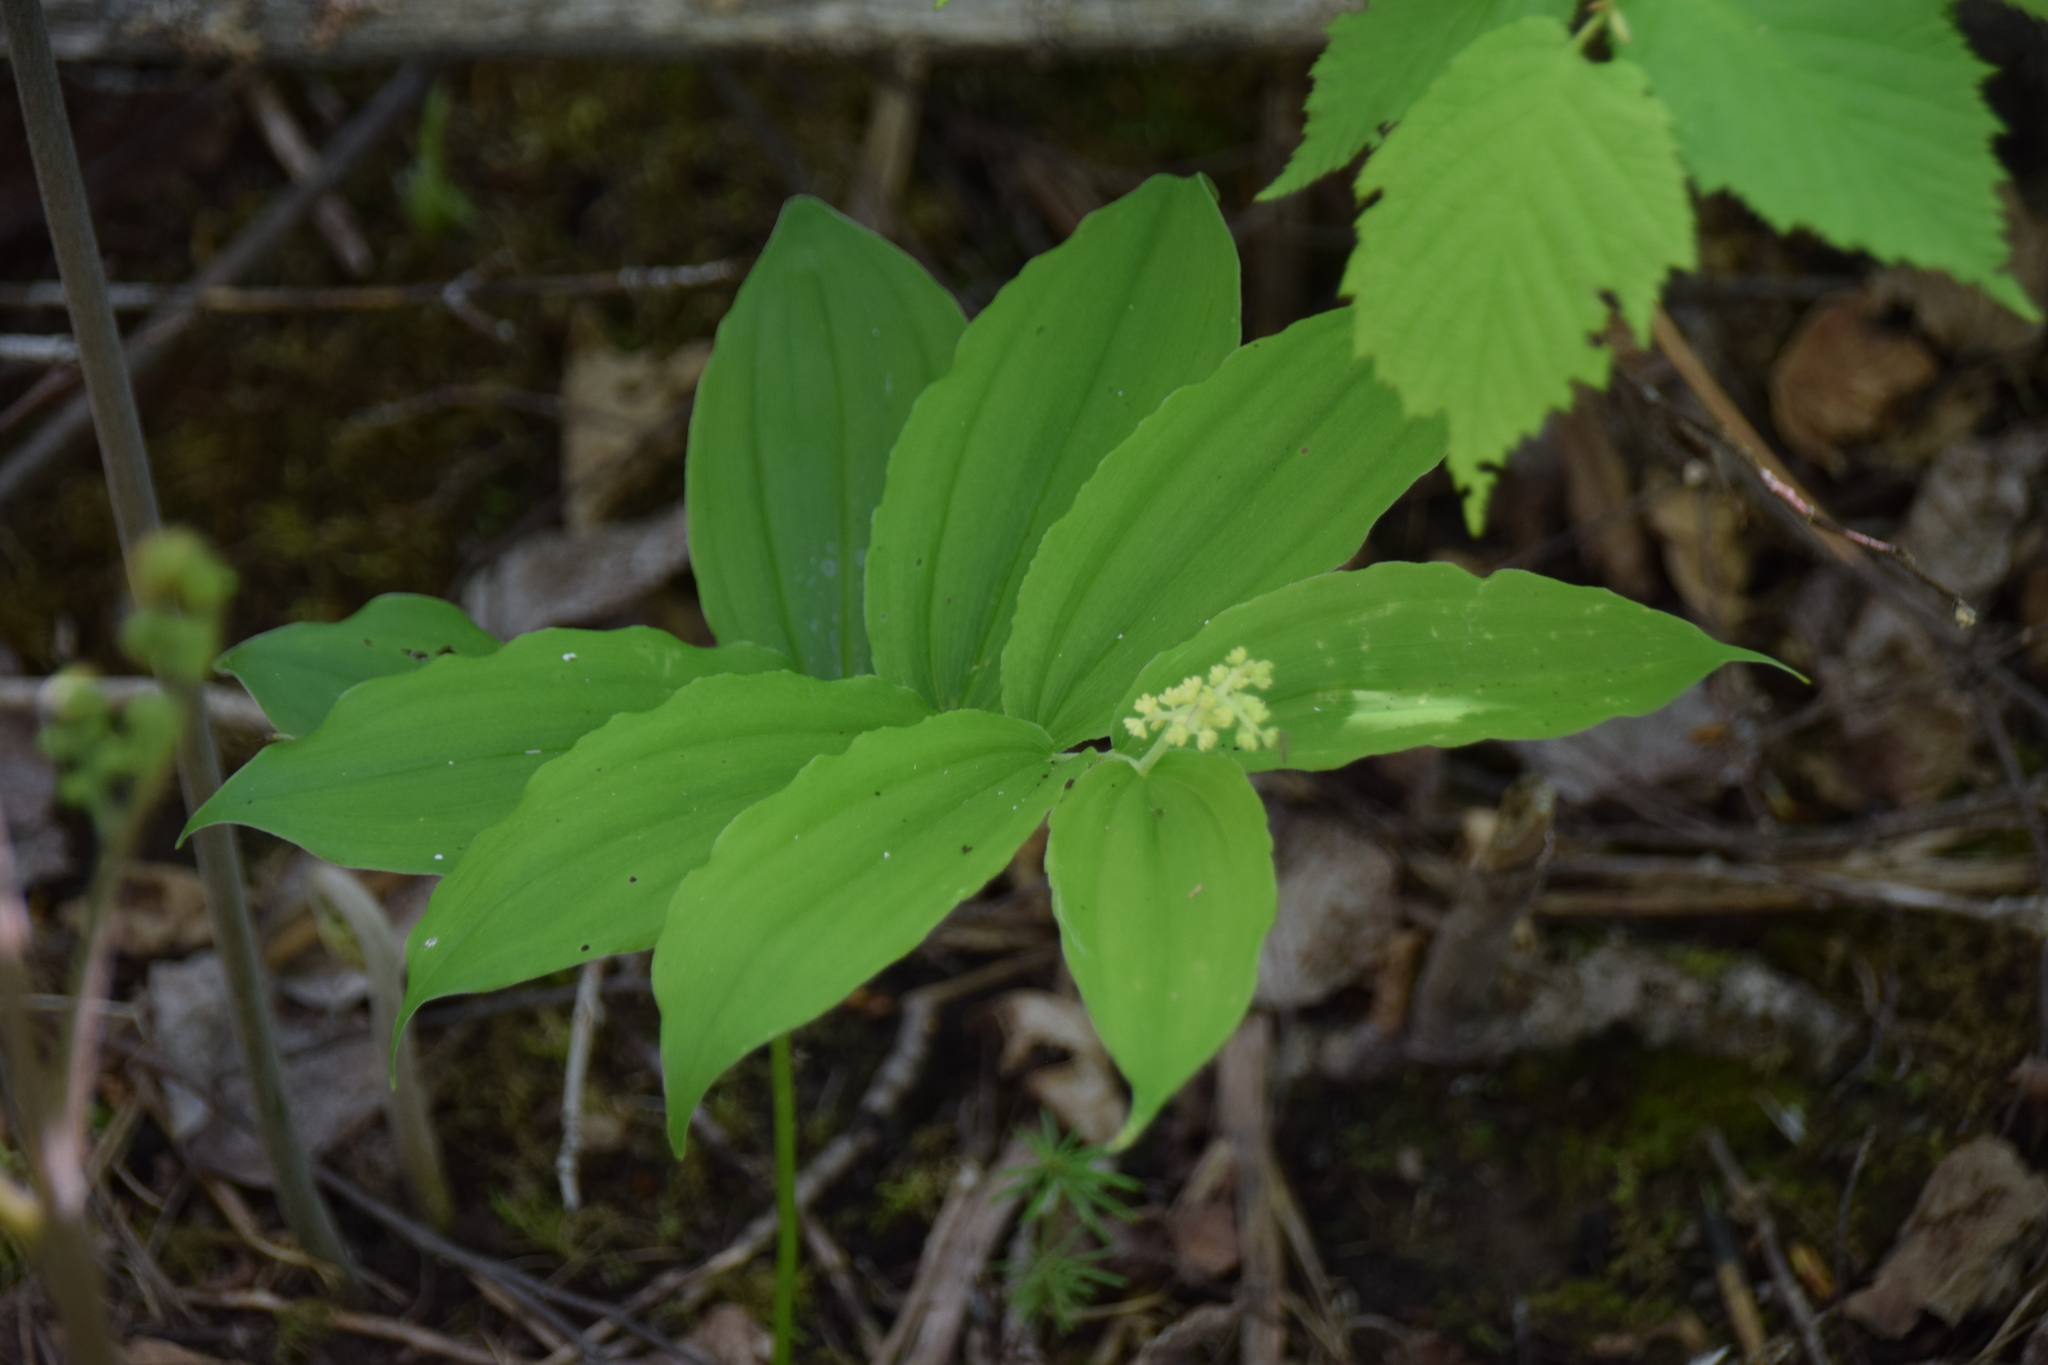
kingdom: Plantae
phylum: Tracheophyta
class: Liliopsida
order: Asparagales
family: Asparagaceae
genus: Maianthemum
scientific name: Maianthemum racemosum
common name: False spikenard
